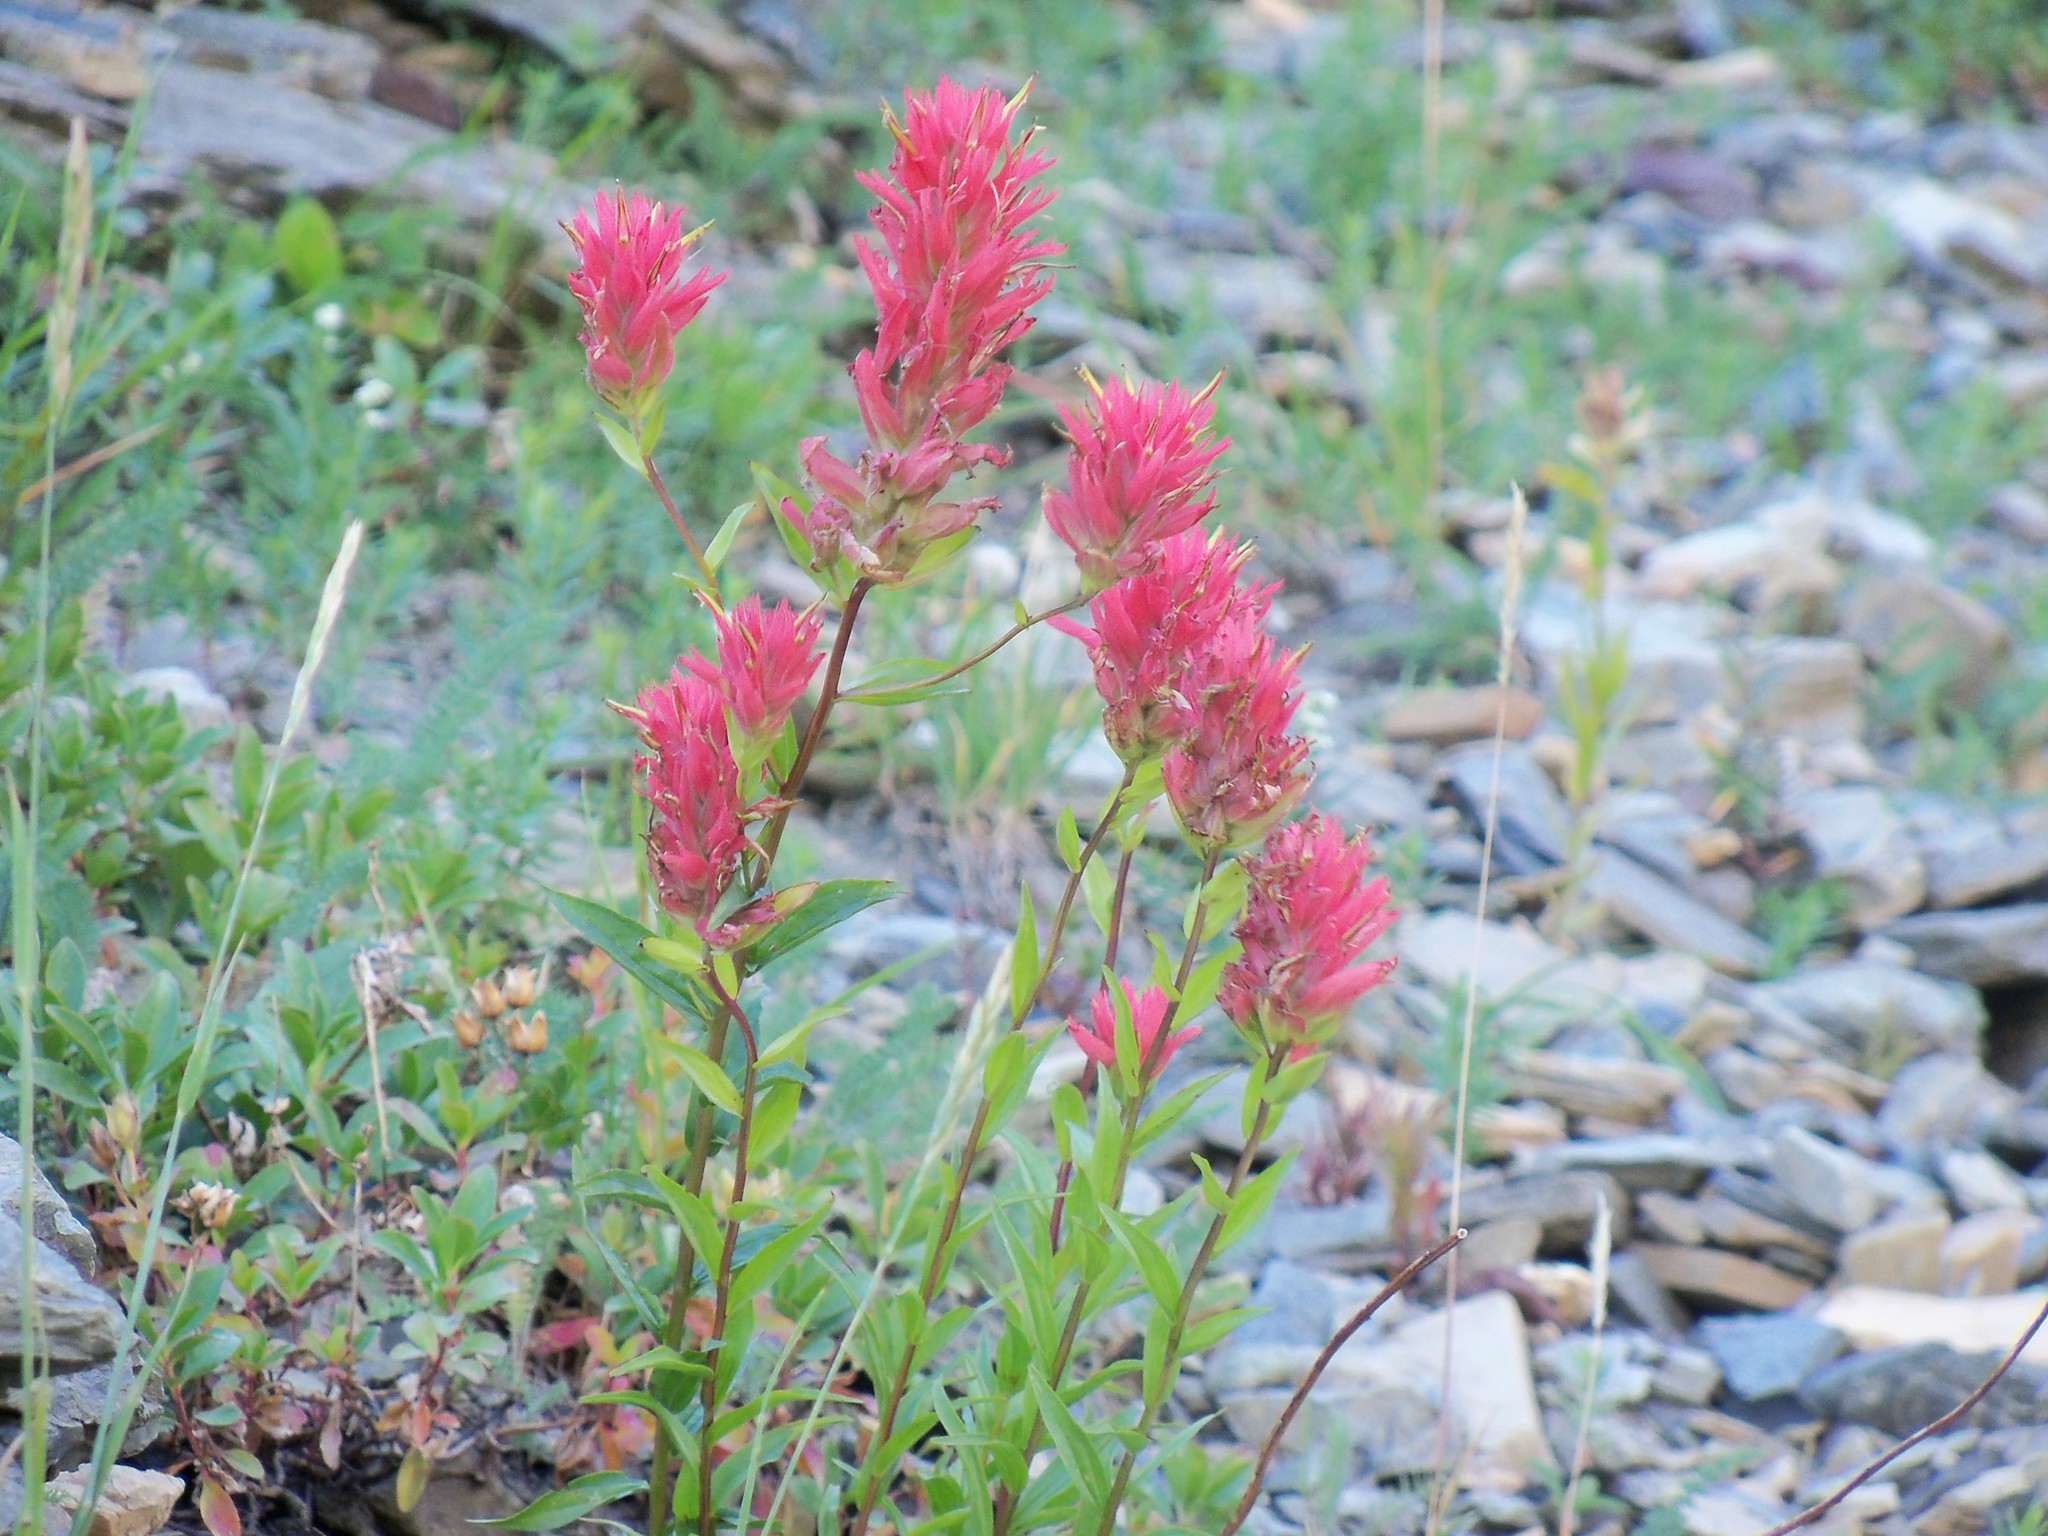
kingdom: Plantae
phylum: Tracheophyta
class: Magnoliopsida
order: Lamiales
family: Orobanchaceae
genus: Castilleja
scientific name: Castilleja miniata
